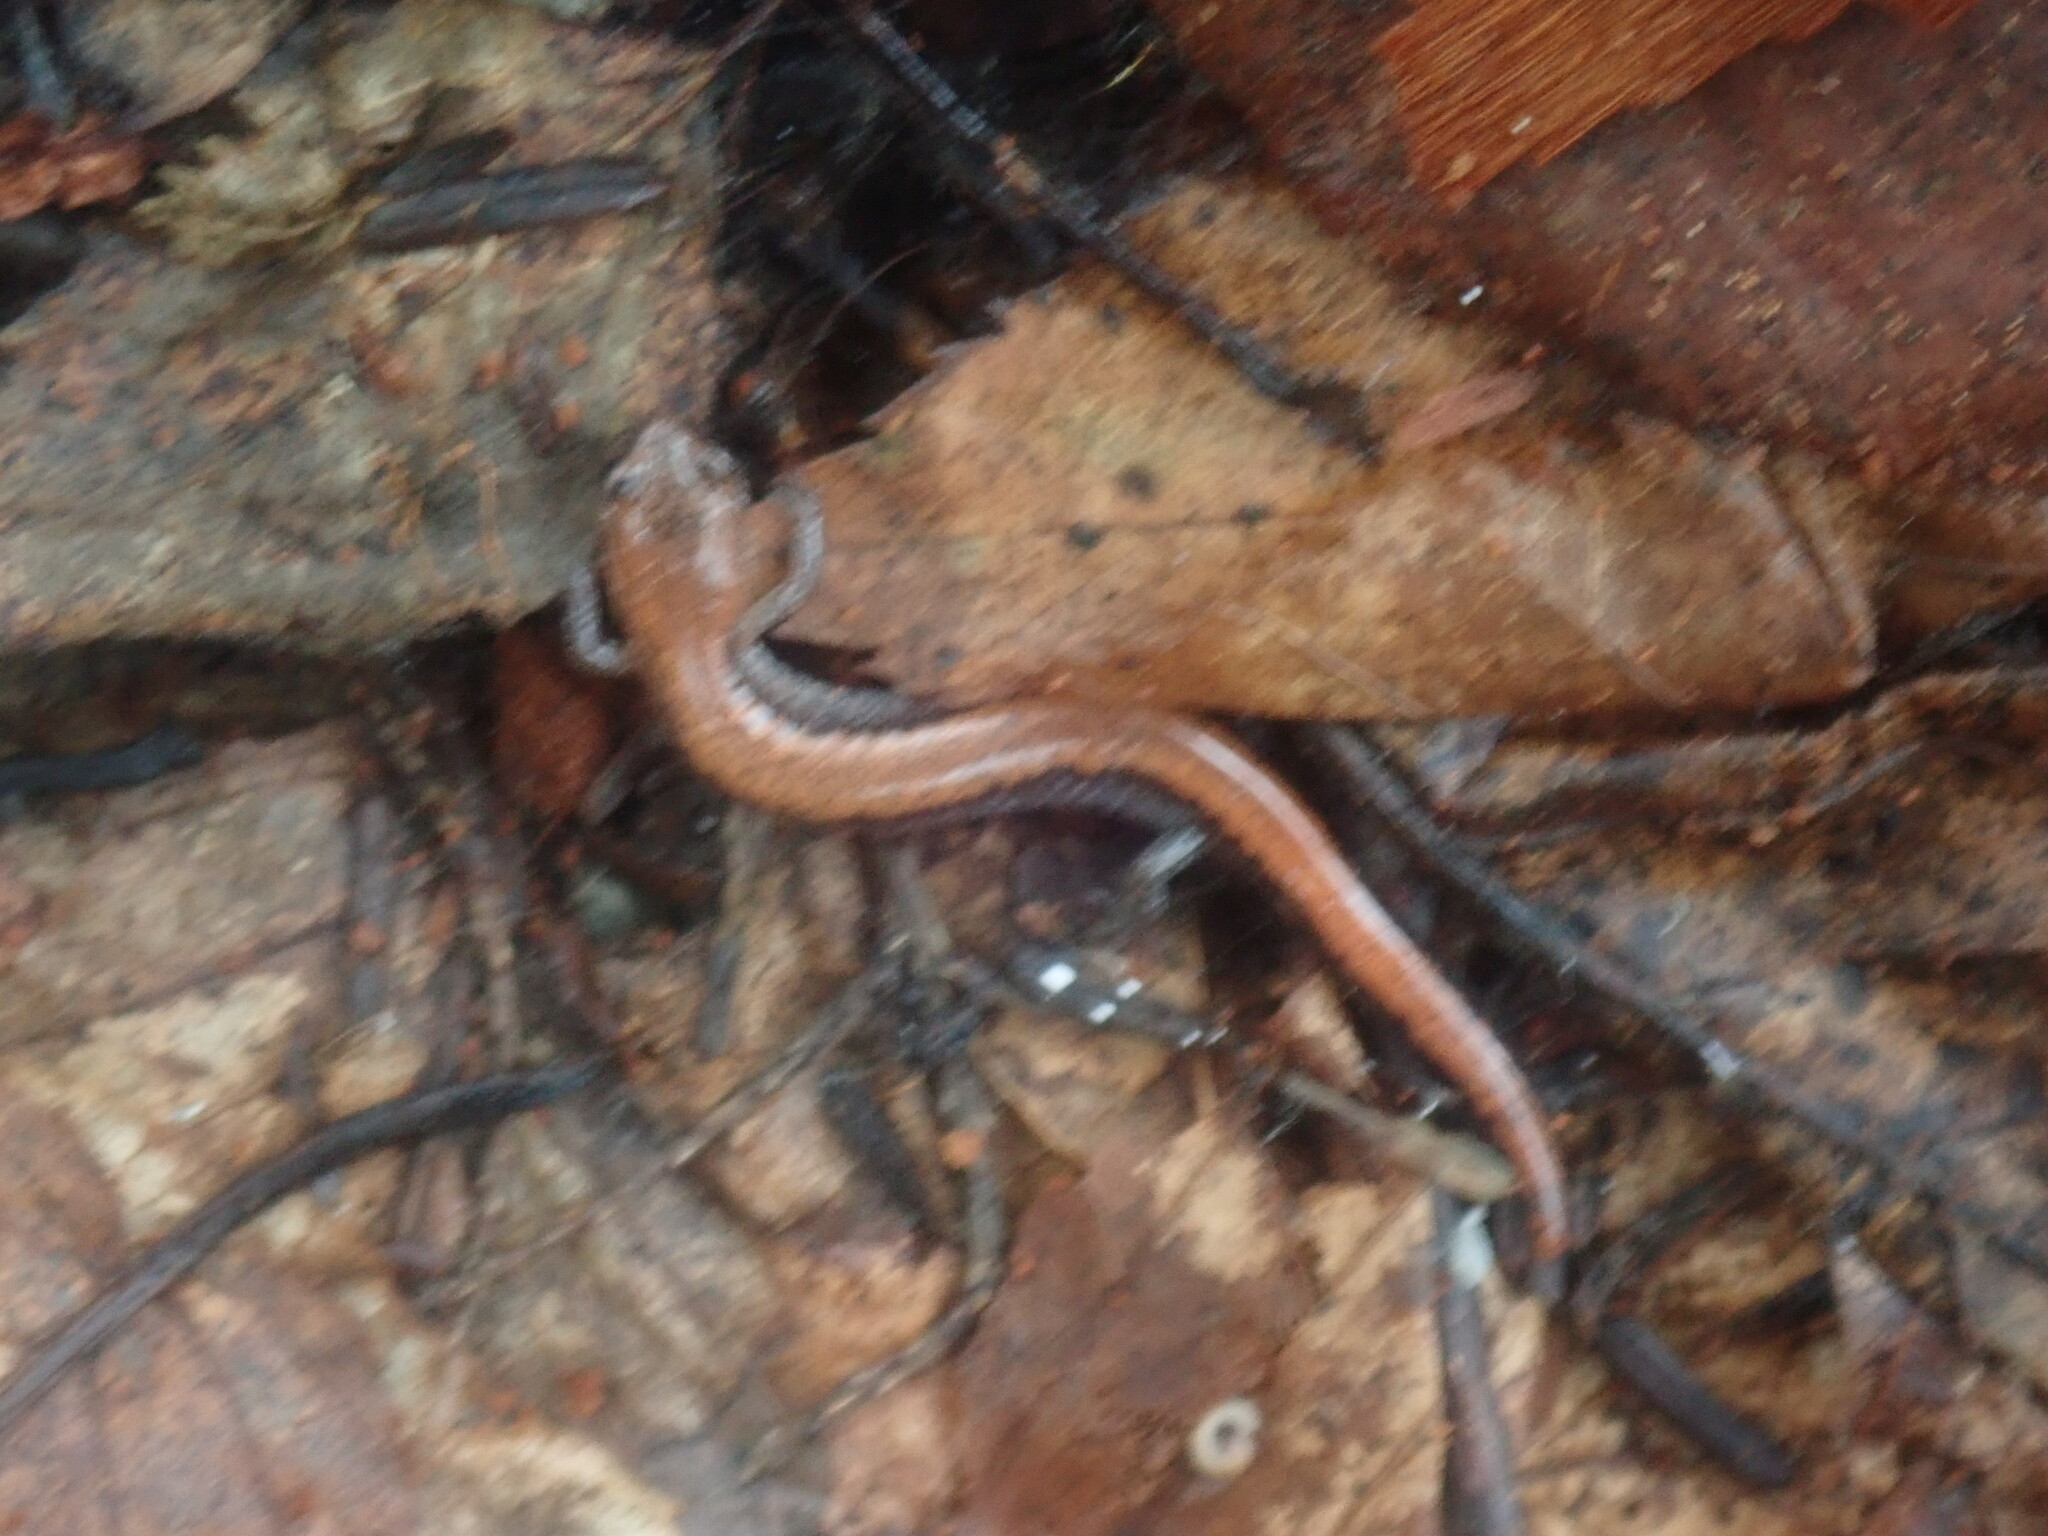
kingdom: Animalia
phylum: Chordata
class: Amphibia
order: Caudata
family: Plethodontidae
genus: Plethodon
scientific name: Plethodon cinereus
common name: Redback salamander
